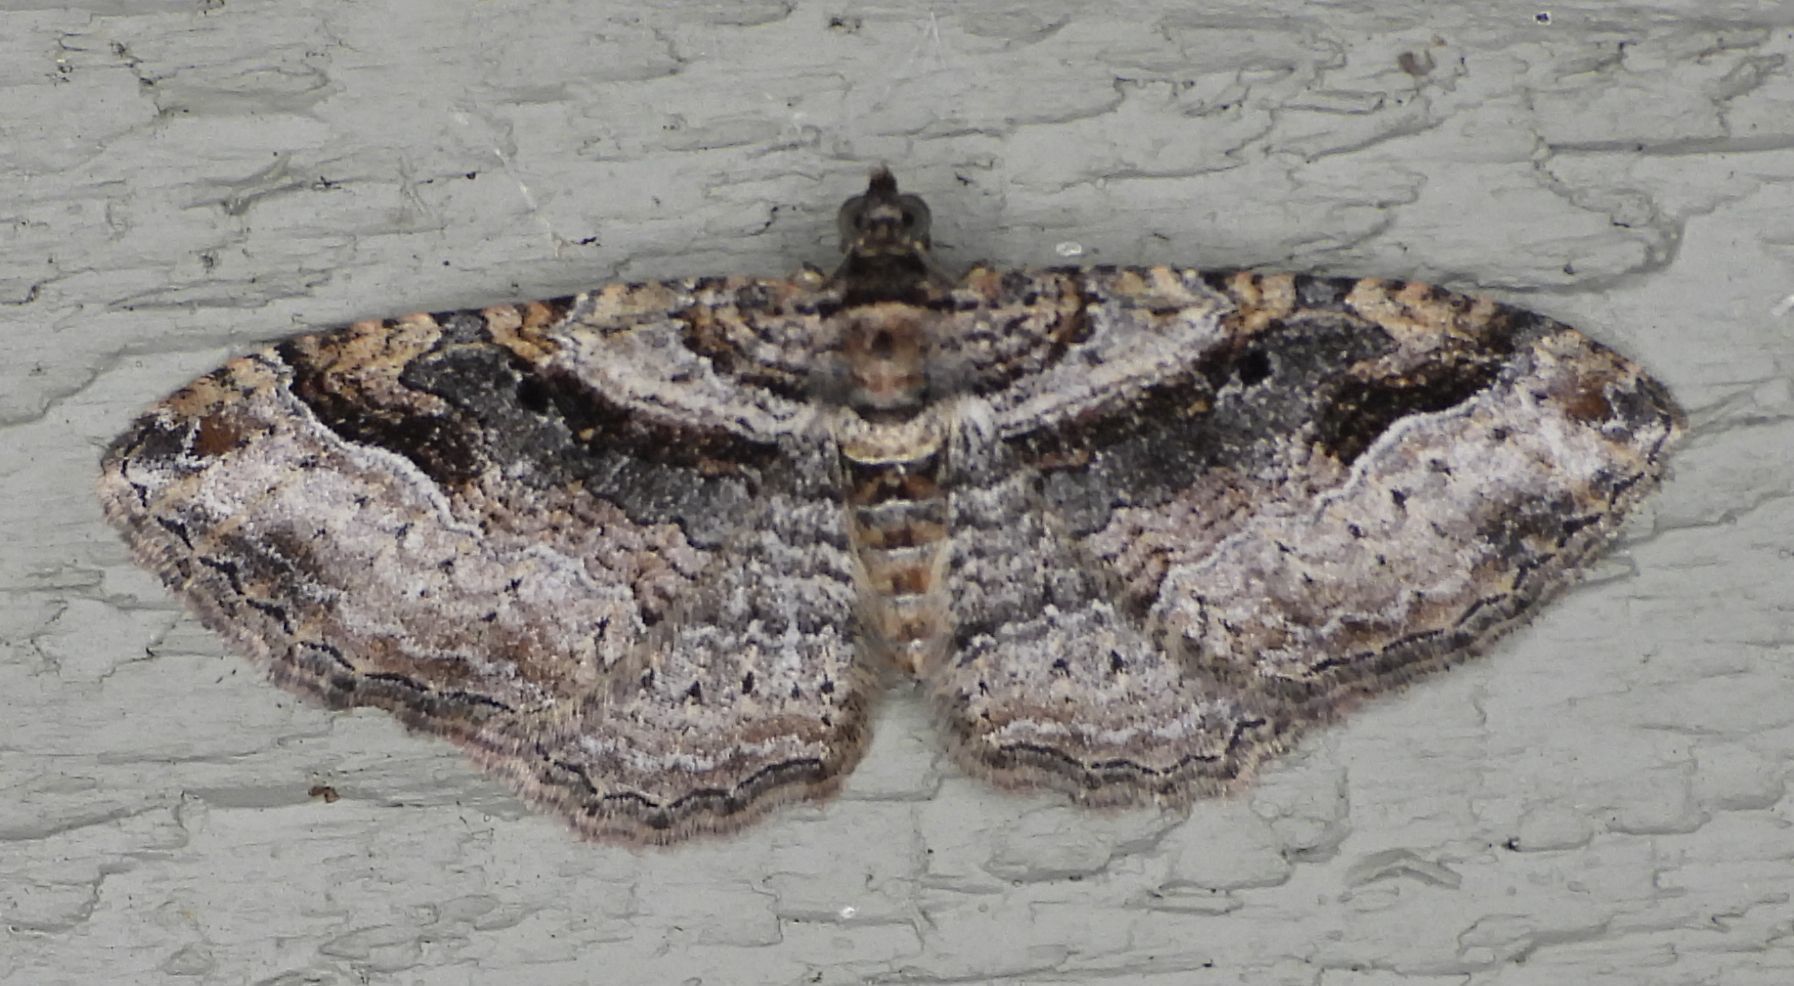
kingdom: Animalia
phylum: Arthropoda
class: Insecta
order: Lepidoptera
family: Geometridae
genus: Costaconvexa
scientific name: Costaconvexa centrostrigaria
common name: Bent-line carpet
